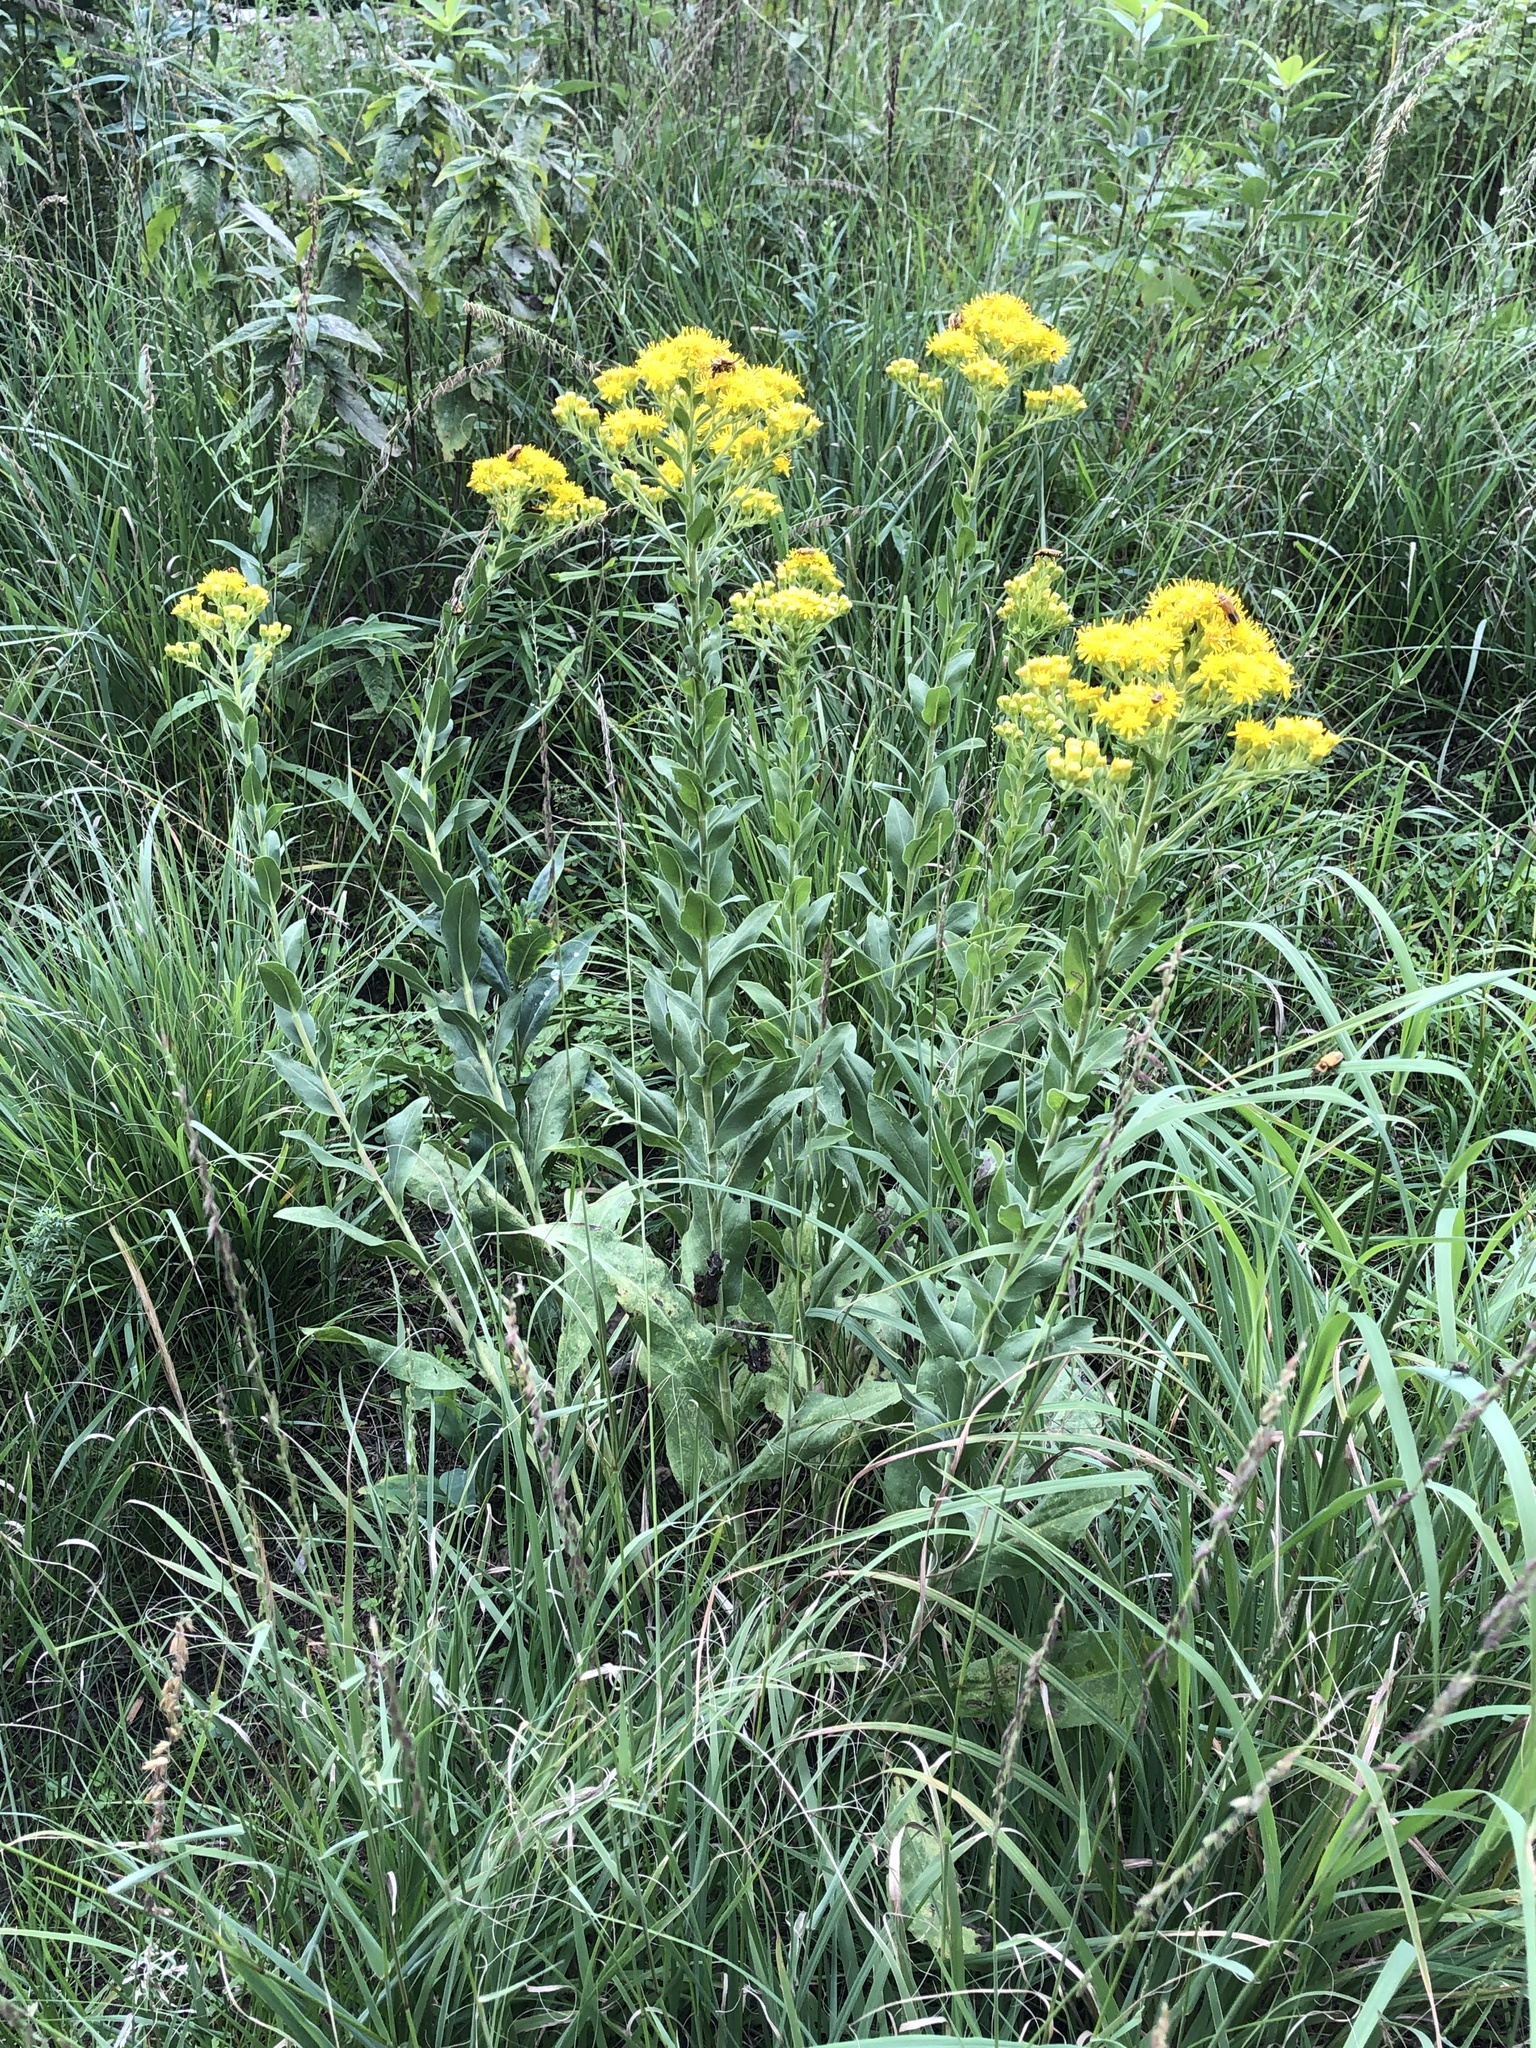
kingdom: Plantae
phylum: Tracheophyta
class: Magnoliopsida
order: Asterales
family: Asteraceae
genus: Solidago
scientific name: Solidago rigida
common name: Rigid goldenrod
